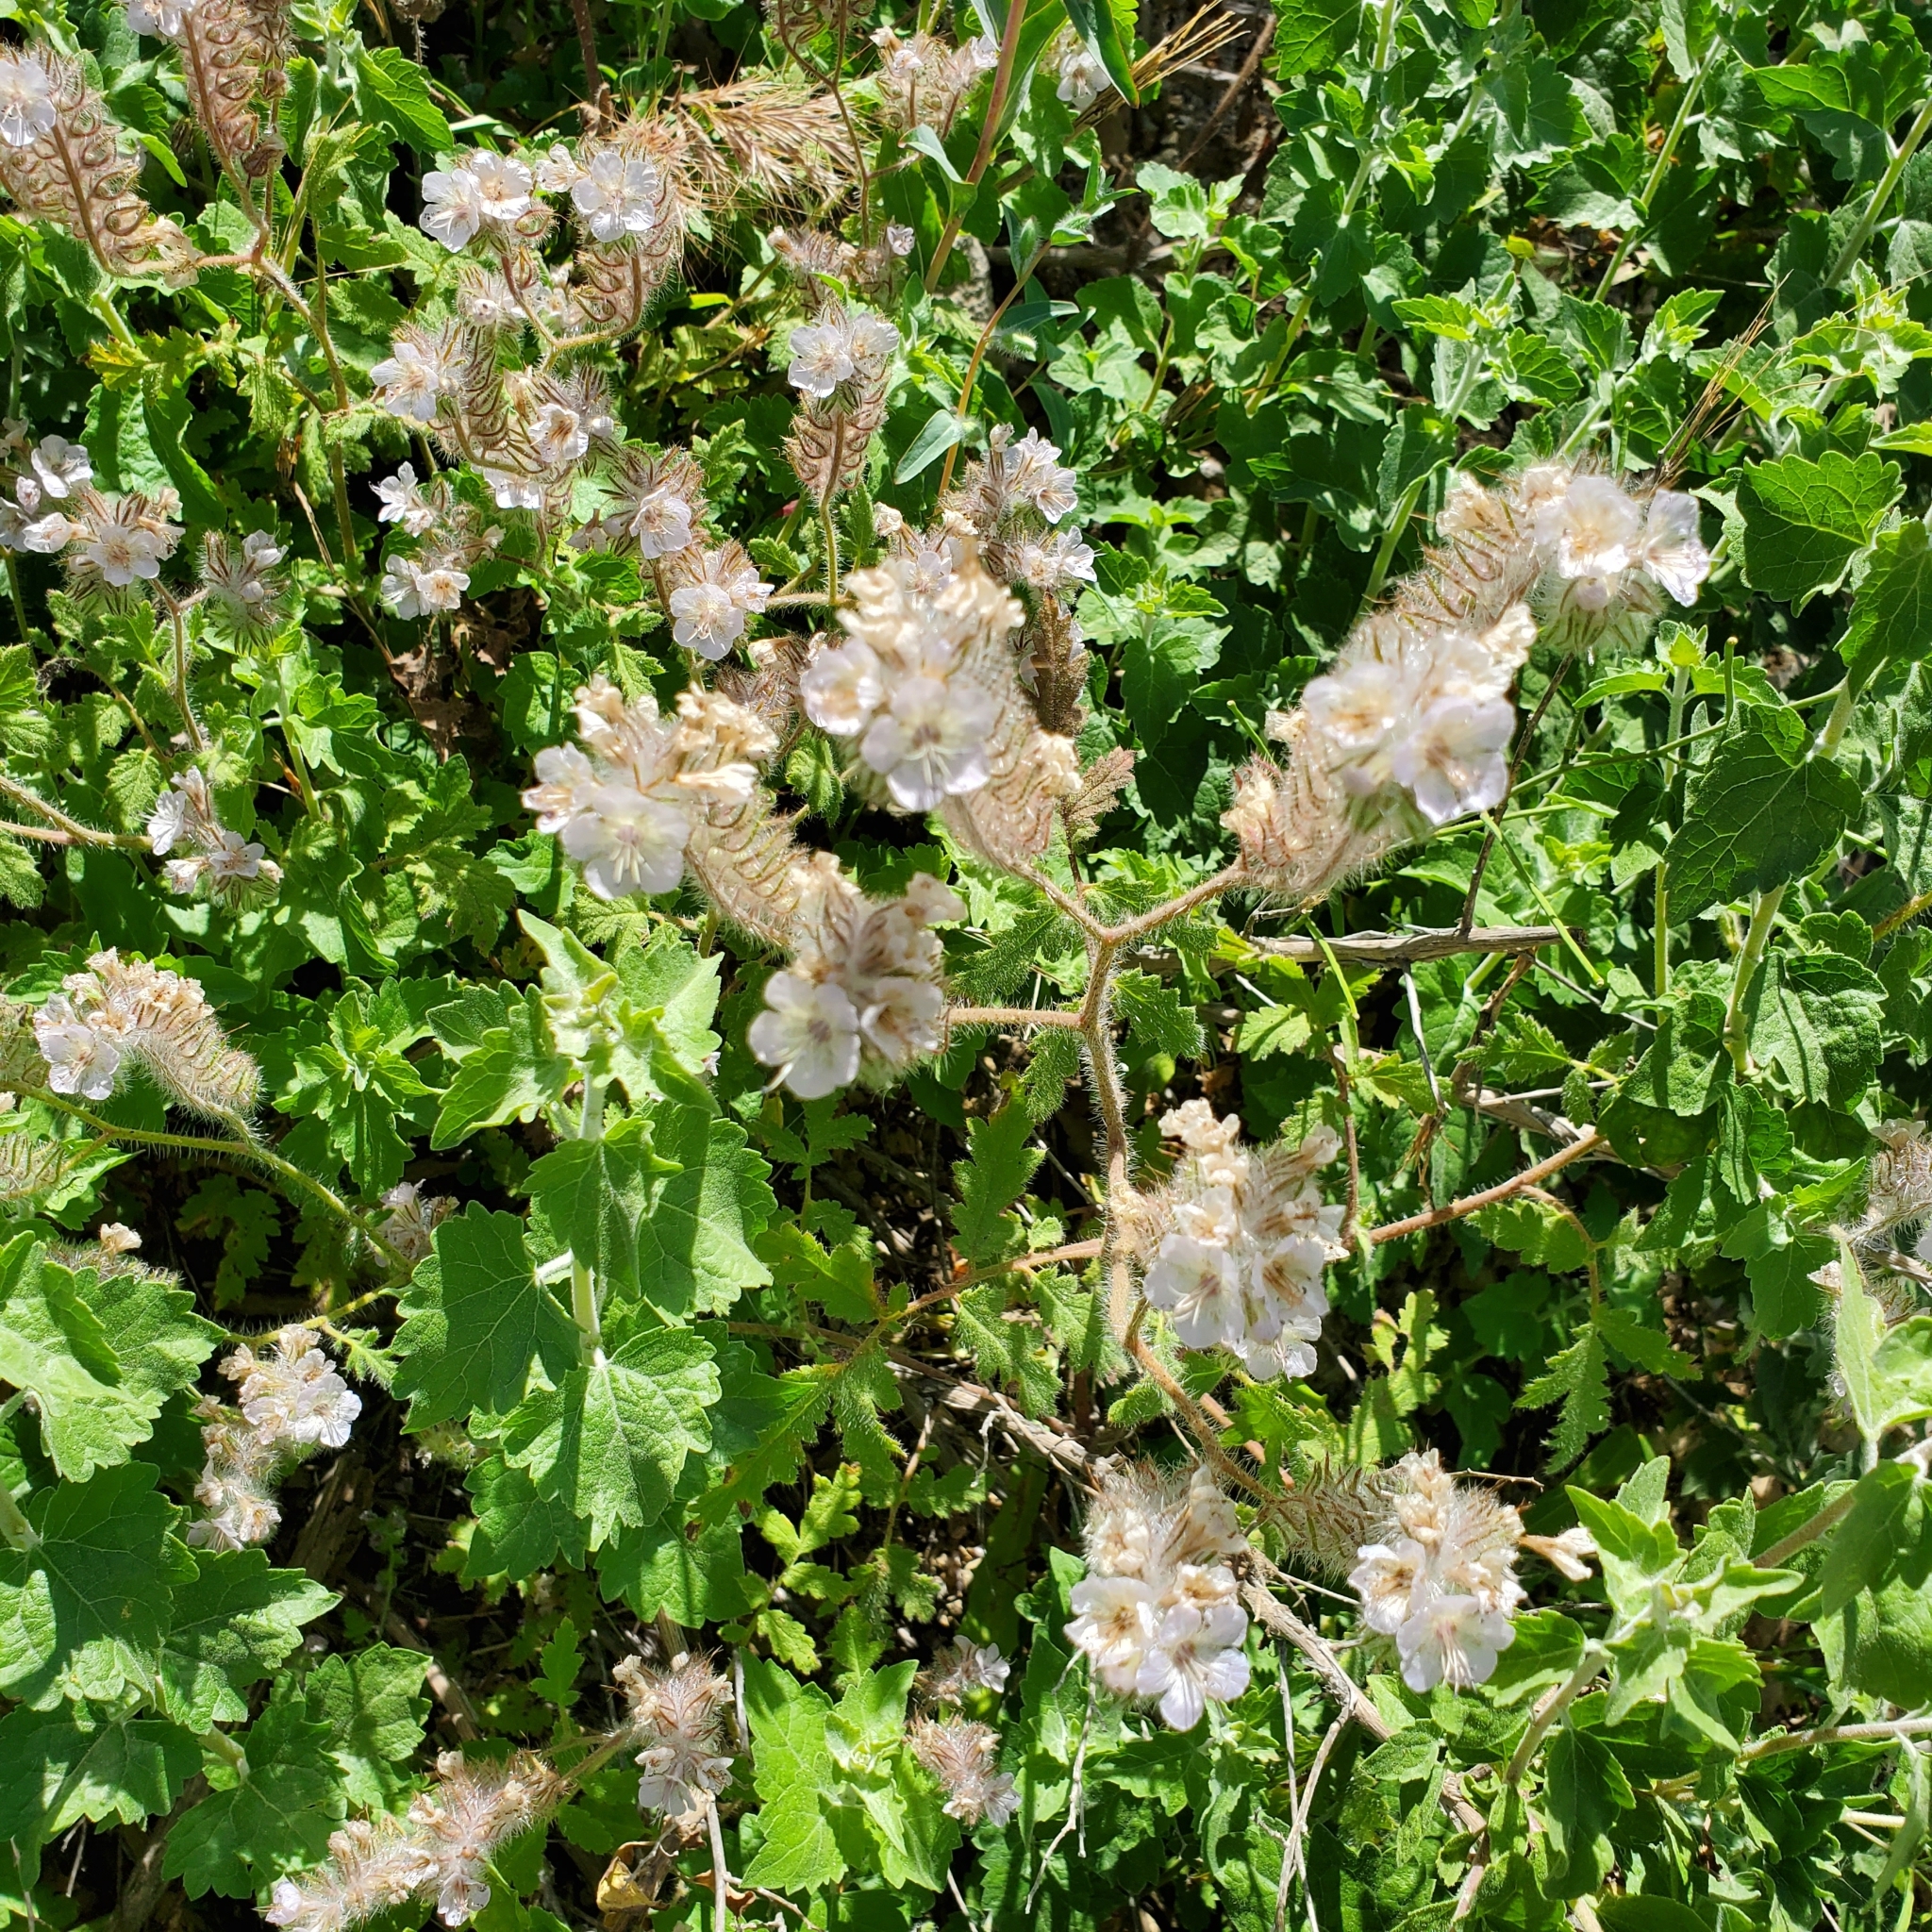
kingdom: Plantae
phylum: Tracheophyta
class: Magnoliopsida
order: Boraginales
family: Hydrophyllaceae
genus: Phacelia
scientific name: Phacelia cicutaria
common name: Caterpillar phacelia
